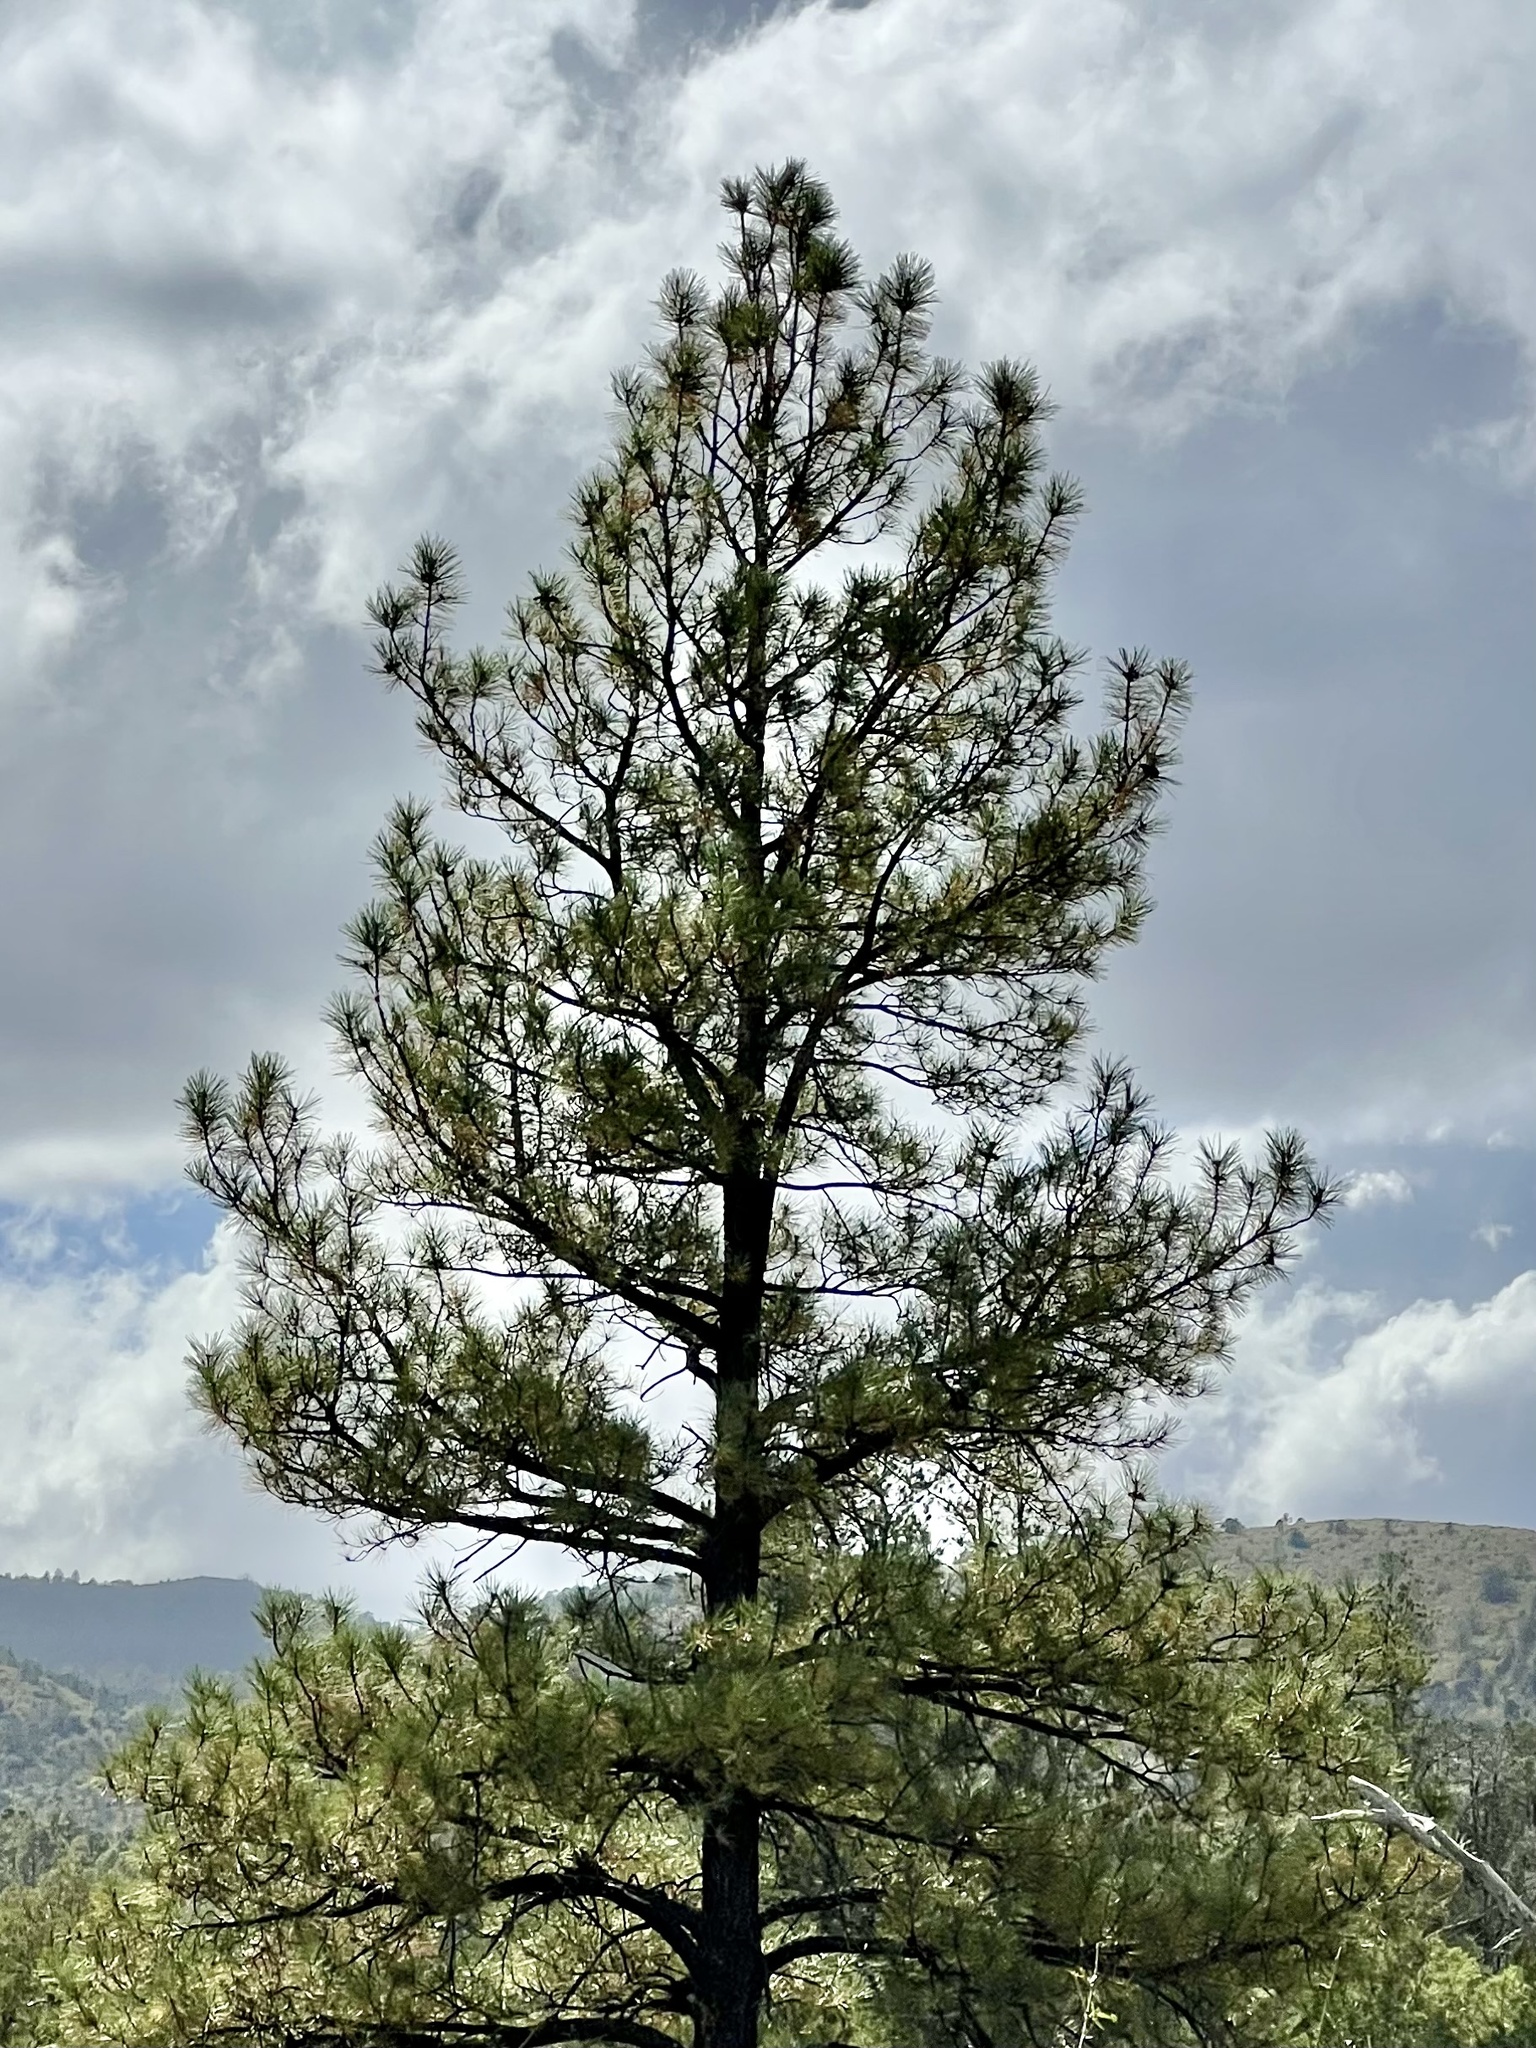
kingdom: Plantae
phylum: Tracheophyta
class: Pinopsida
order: Pinales
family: Pinaceae
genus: Pinus
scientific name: Pinus ponderosa
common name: Western yellow-pine
